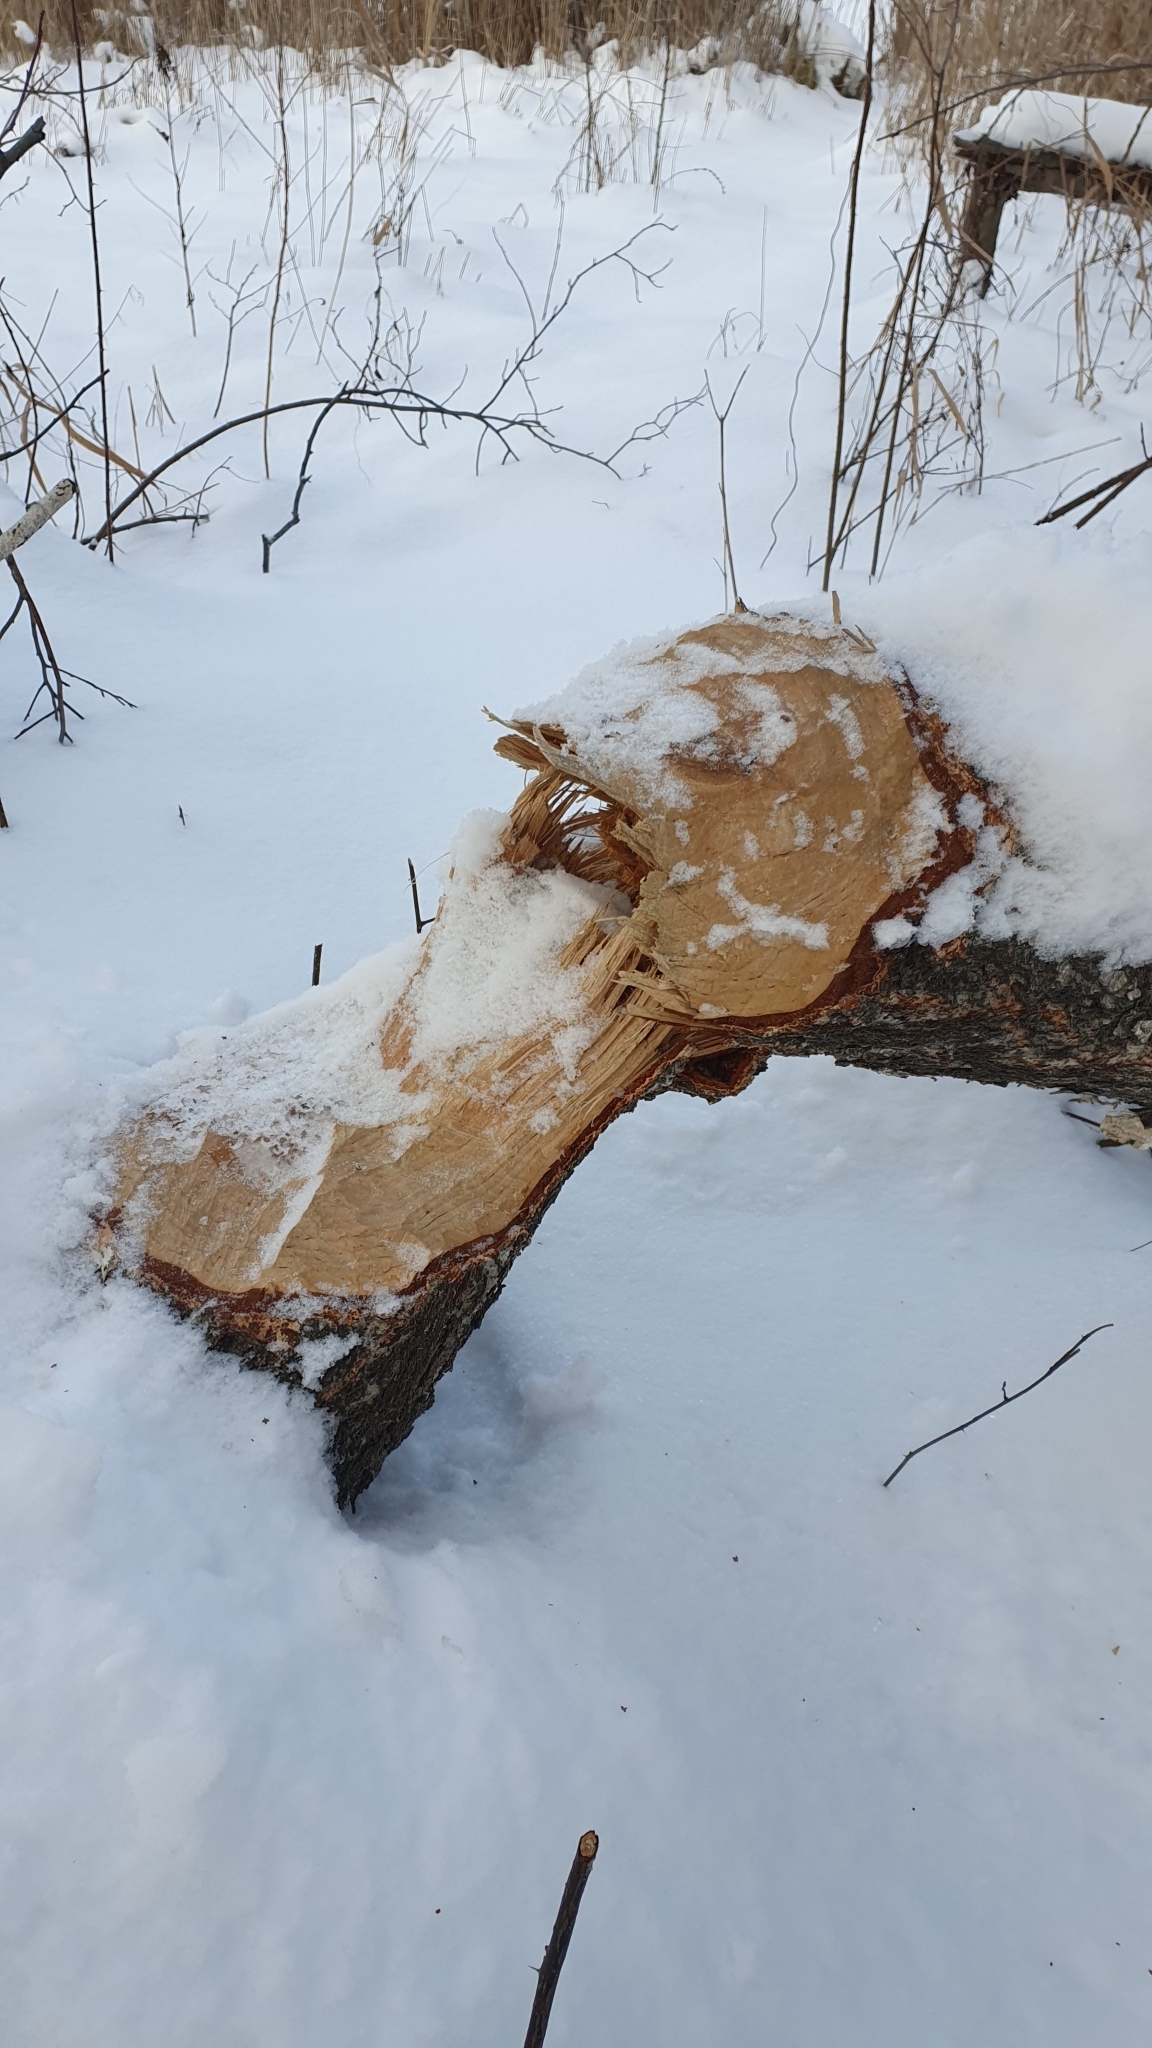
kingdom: Animalia
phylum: Chordata
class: Mammalia
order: Rodentia
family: Castoridae
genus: Castor
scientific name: Castor fiber
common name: Eurasian beaver
